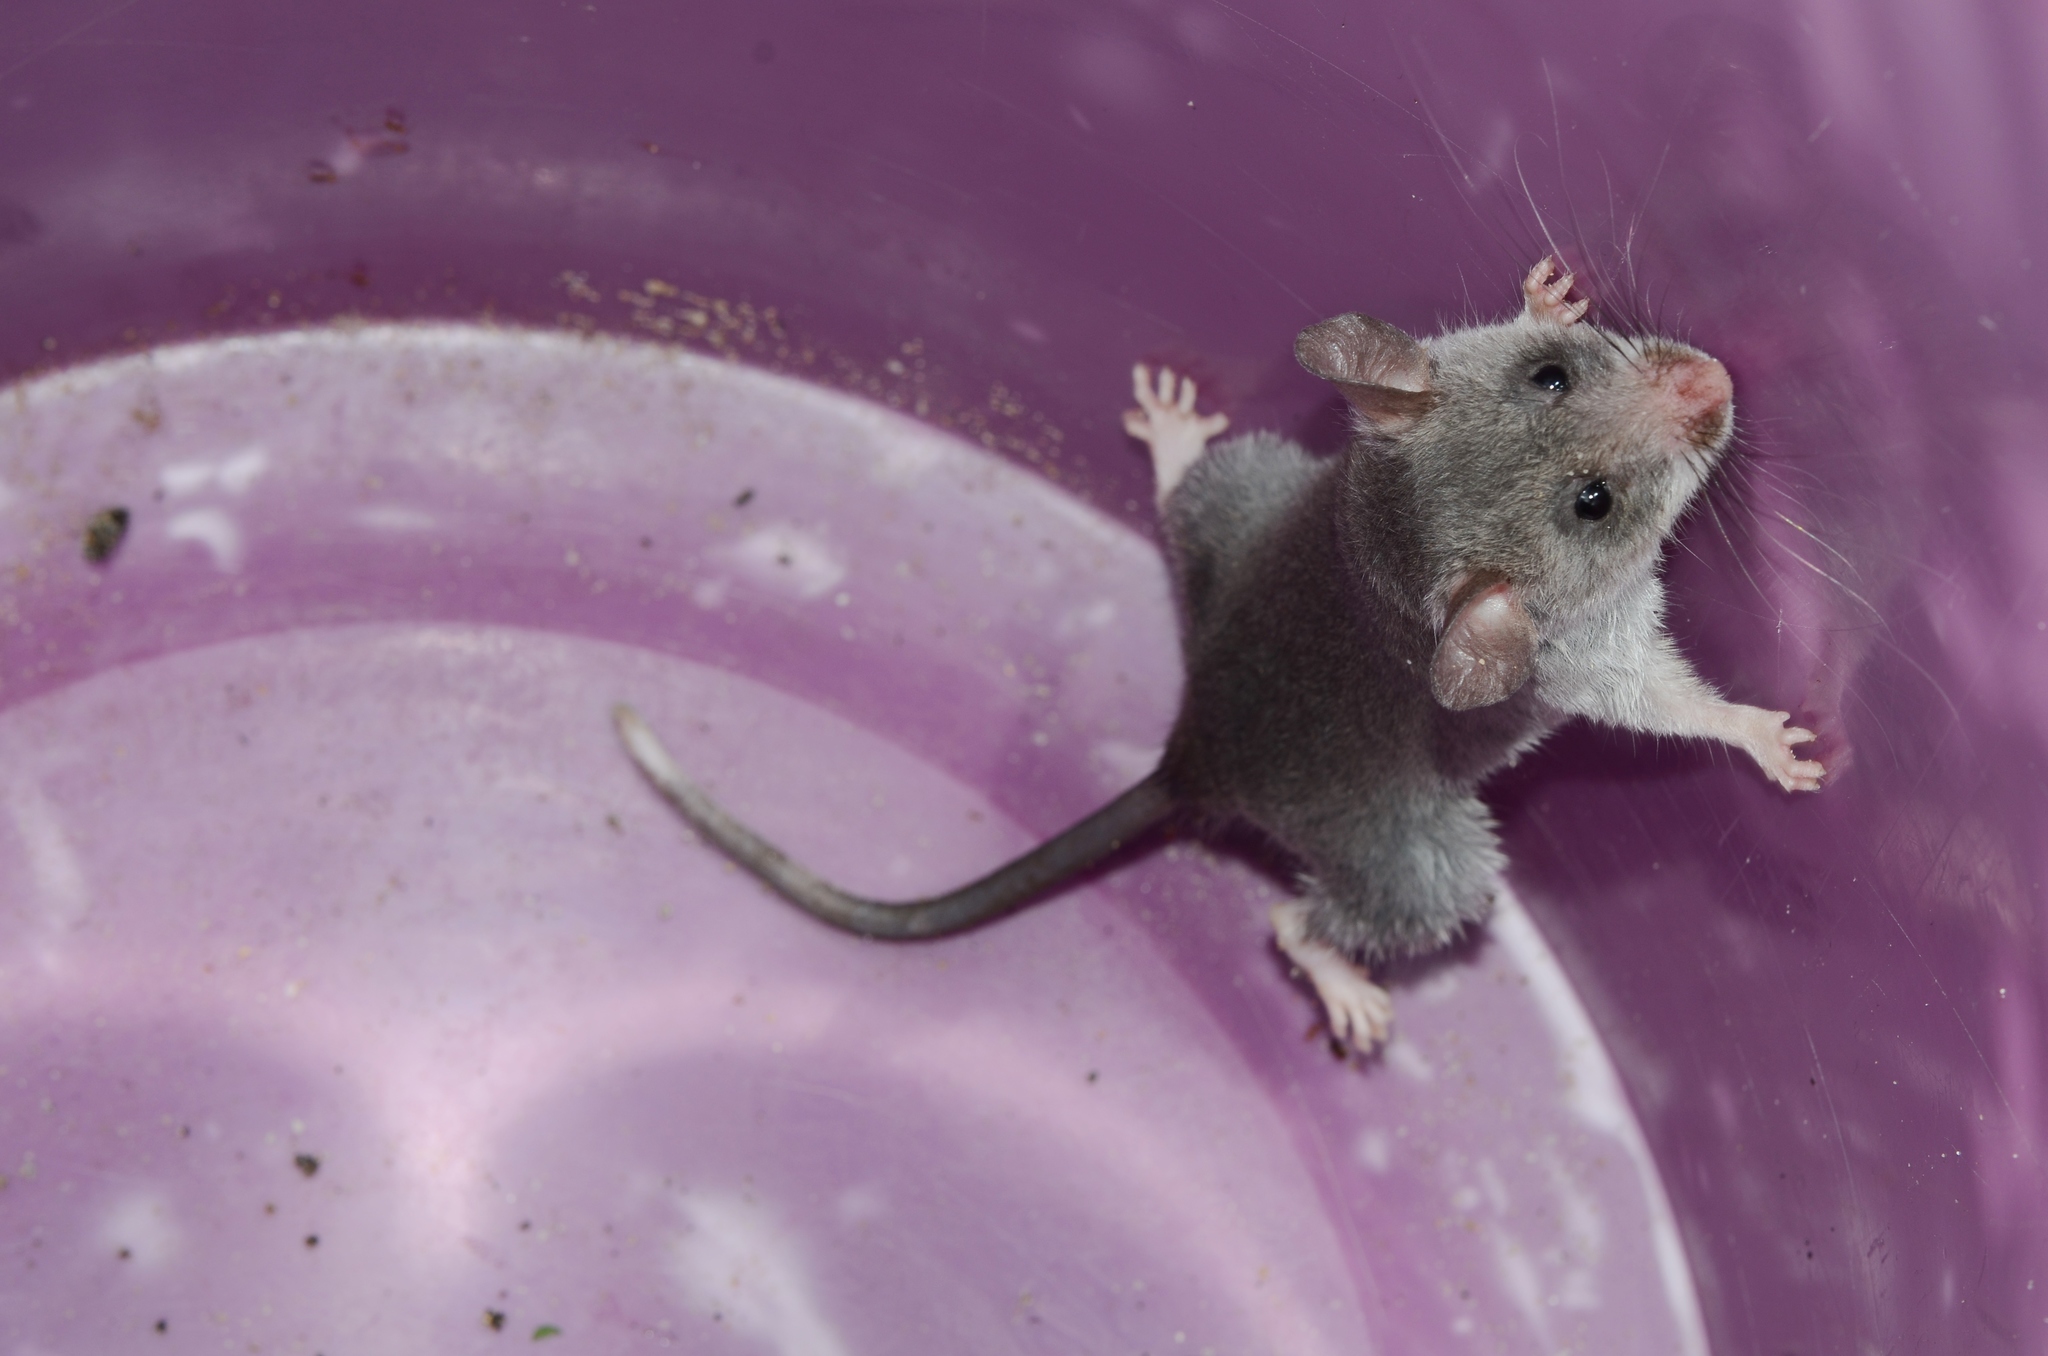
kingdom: Animalia
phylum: Chordata
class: Mammalia
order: Rodentia
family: Nesomyidae
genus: Beamys
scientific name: Beamys hindei
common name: Lesser hamster-rat, long-tailed pouched rat
